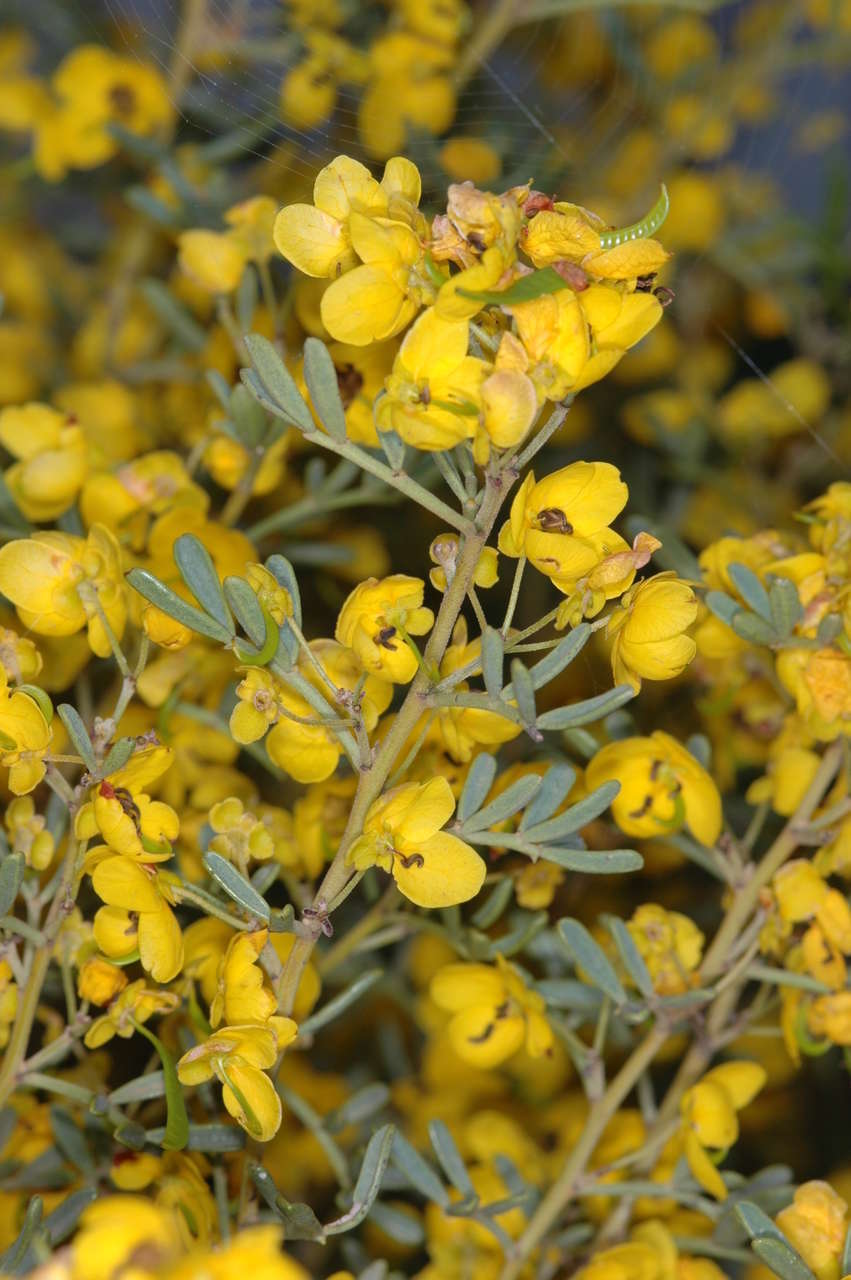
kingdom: Plantae
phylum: Tracheophyta
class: Magnoliopsida
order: Fabales
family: Fabaceae
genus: Senna
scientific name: Senna artemisioides
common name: Burnt-leaved acacia
